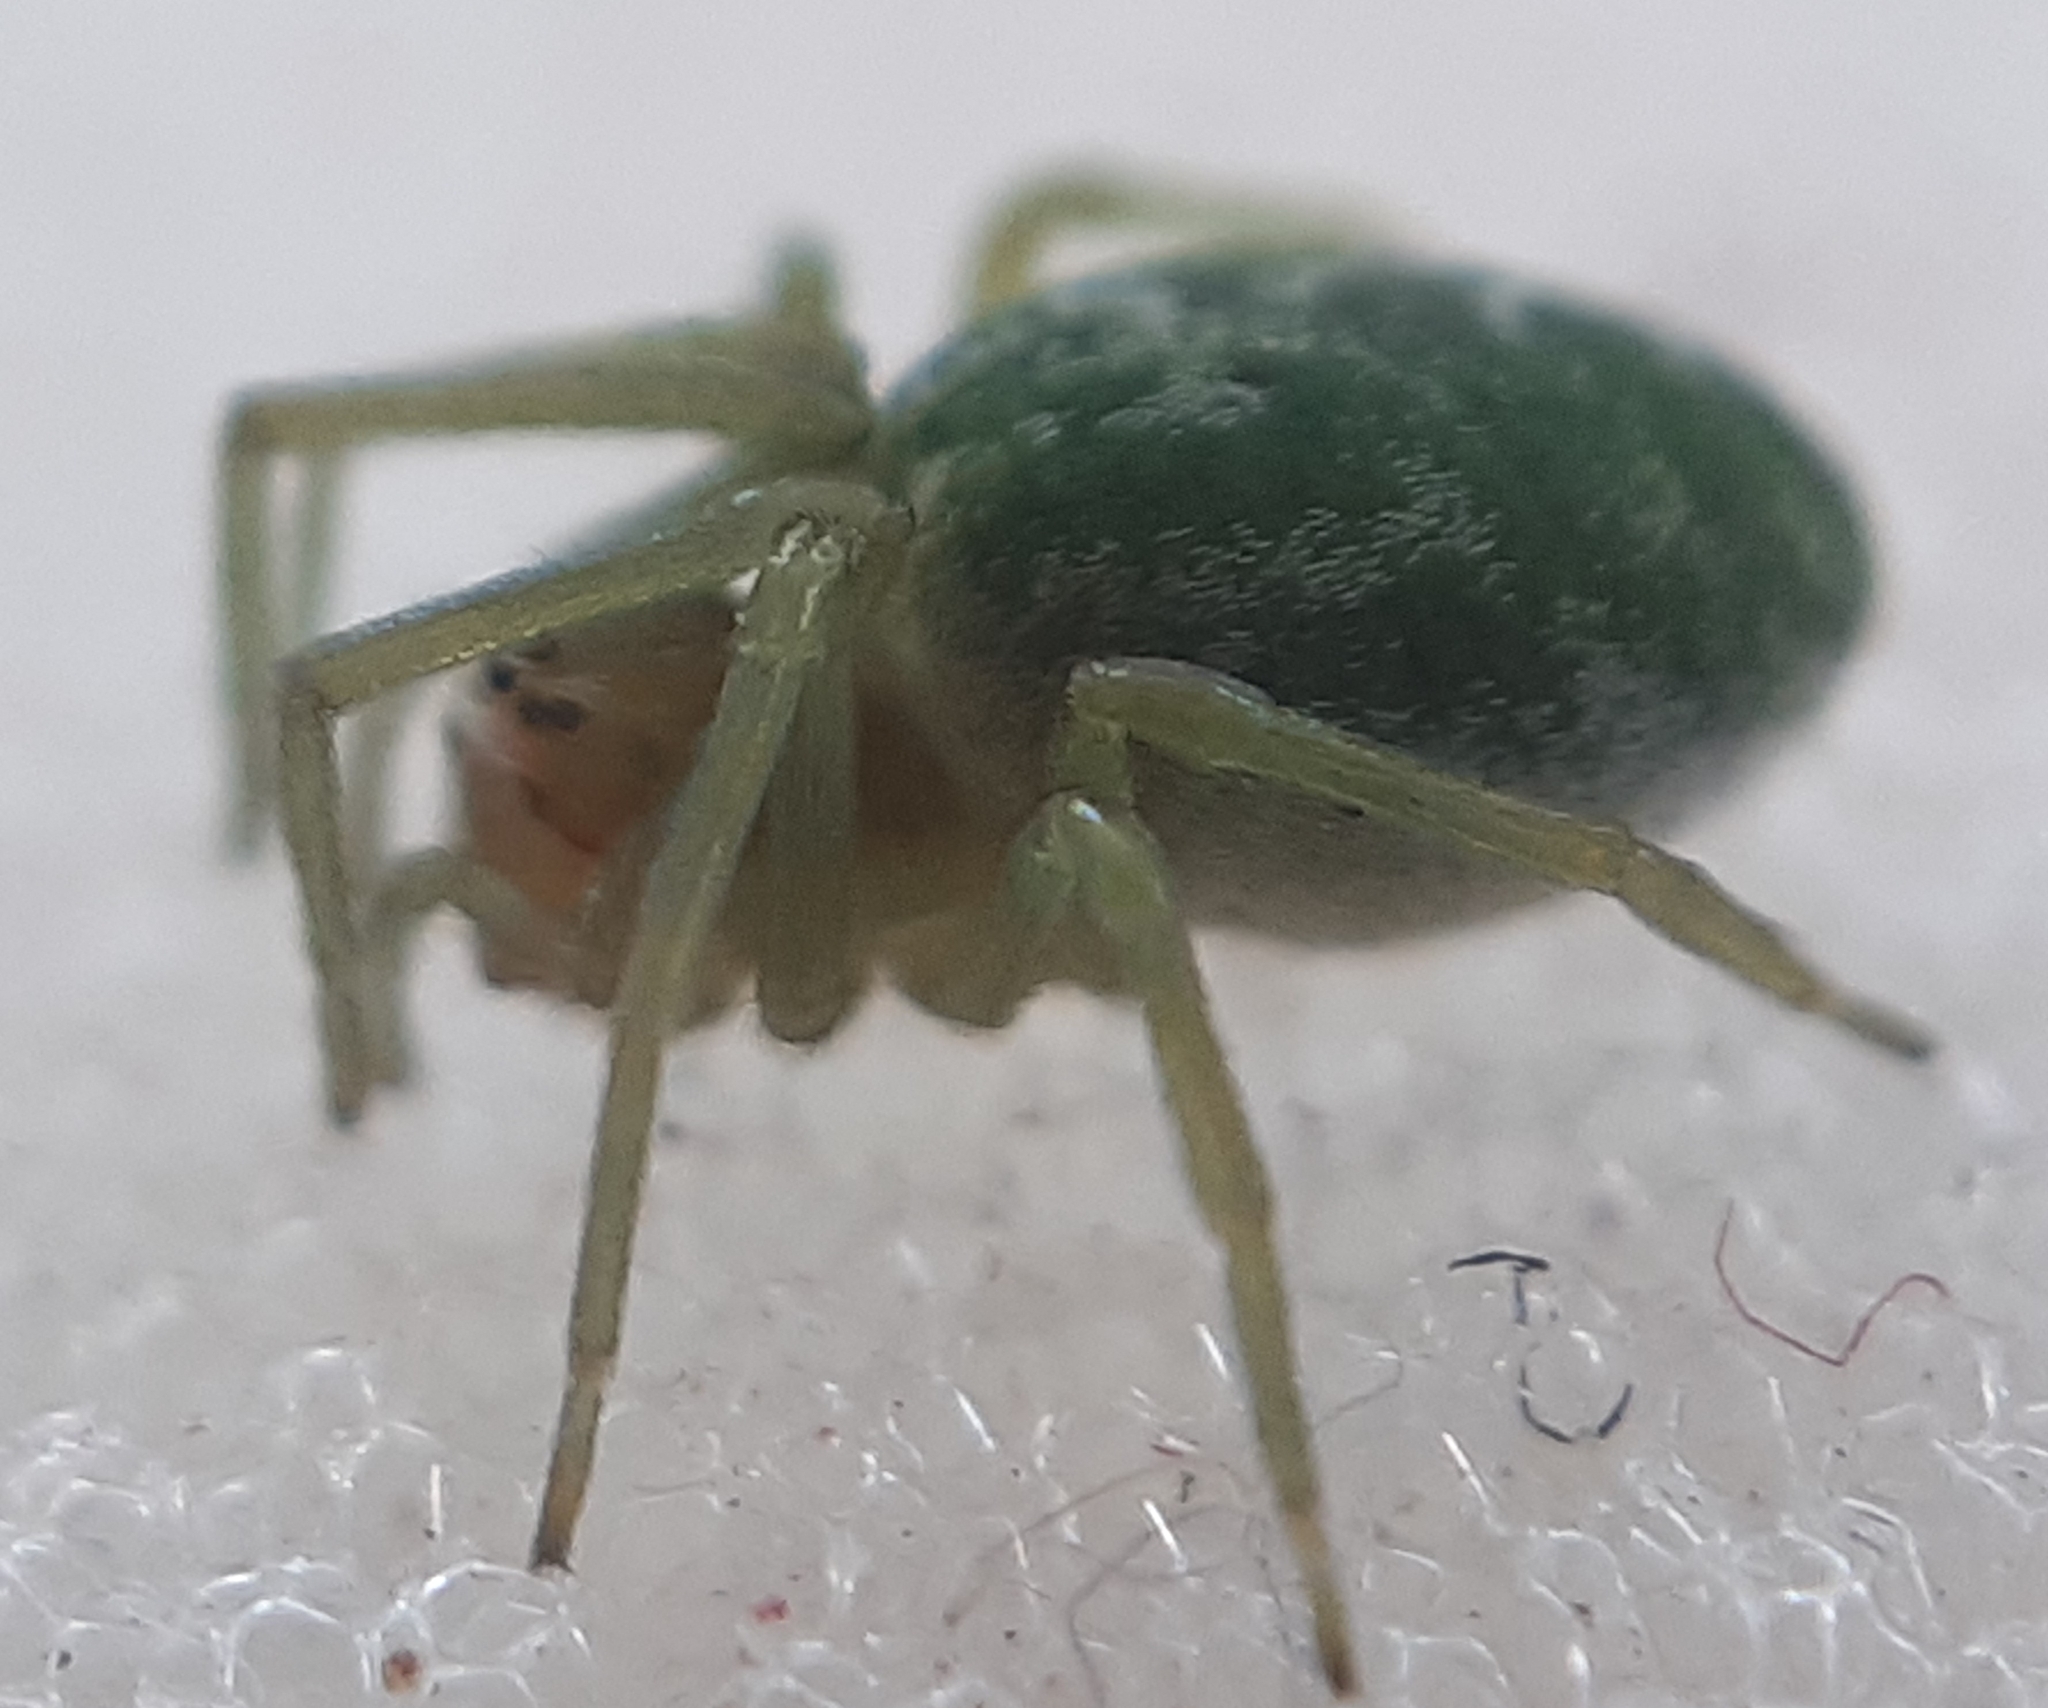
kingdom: Animalia
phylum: Arthropoda
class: Arachnida
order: Araneae
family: Dictynidae
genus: Nigma
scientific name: Nigma walckenaeri
